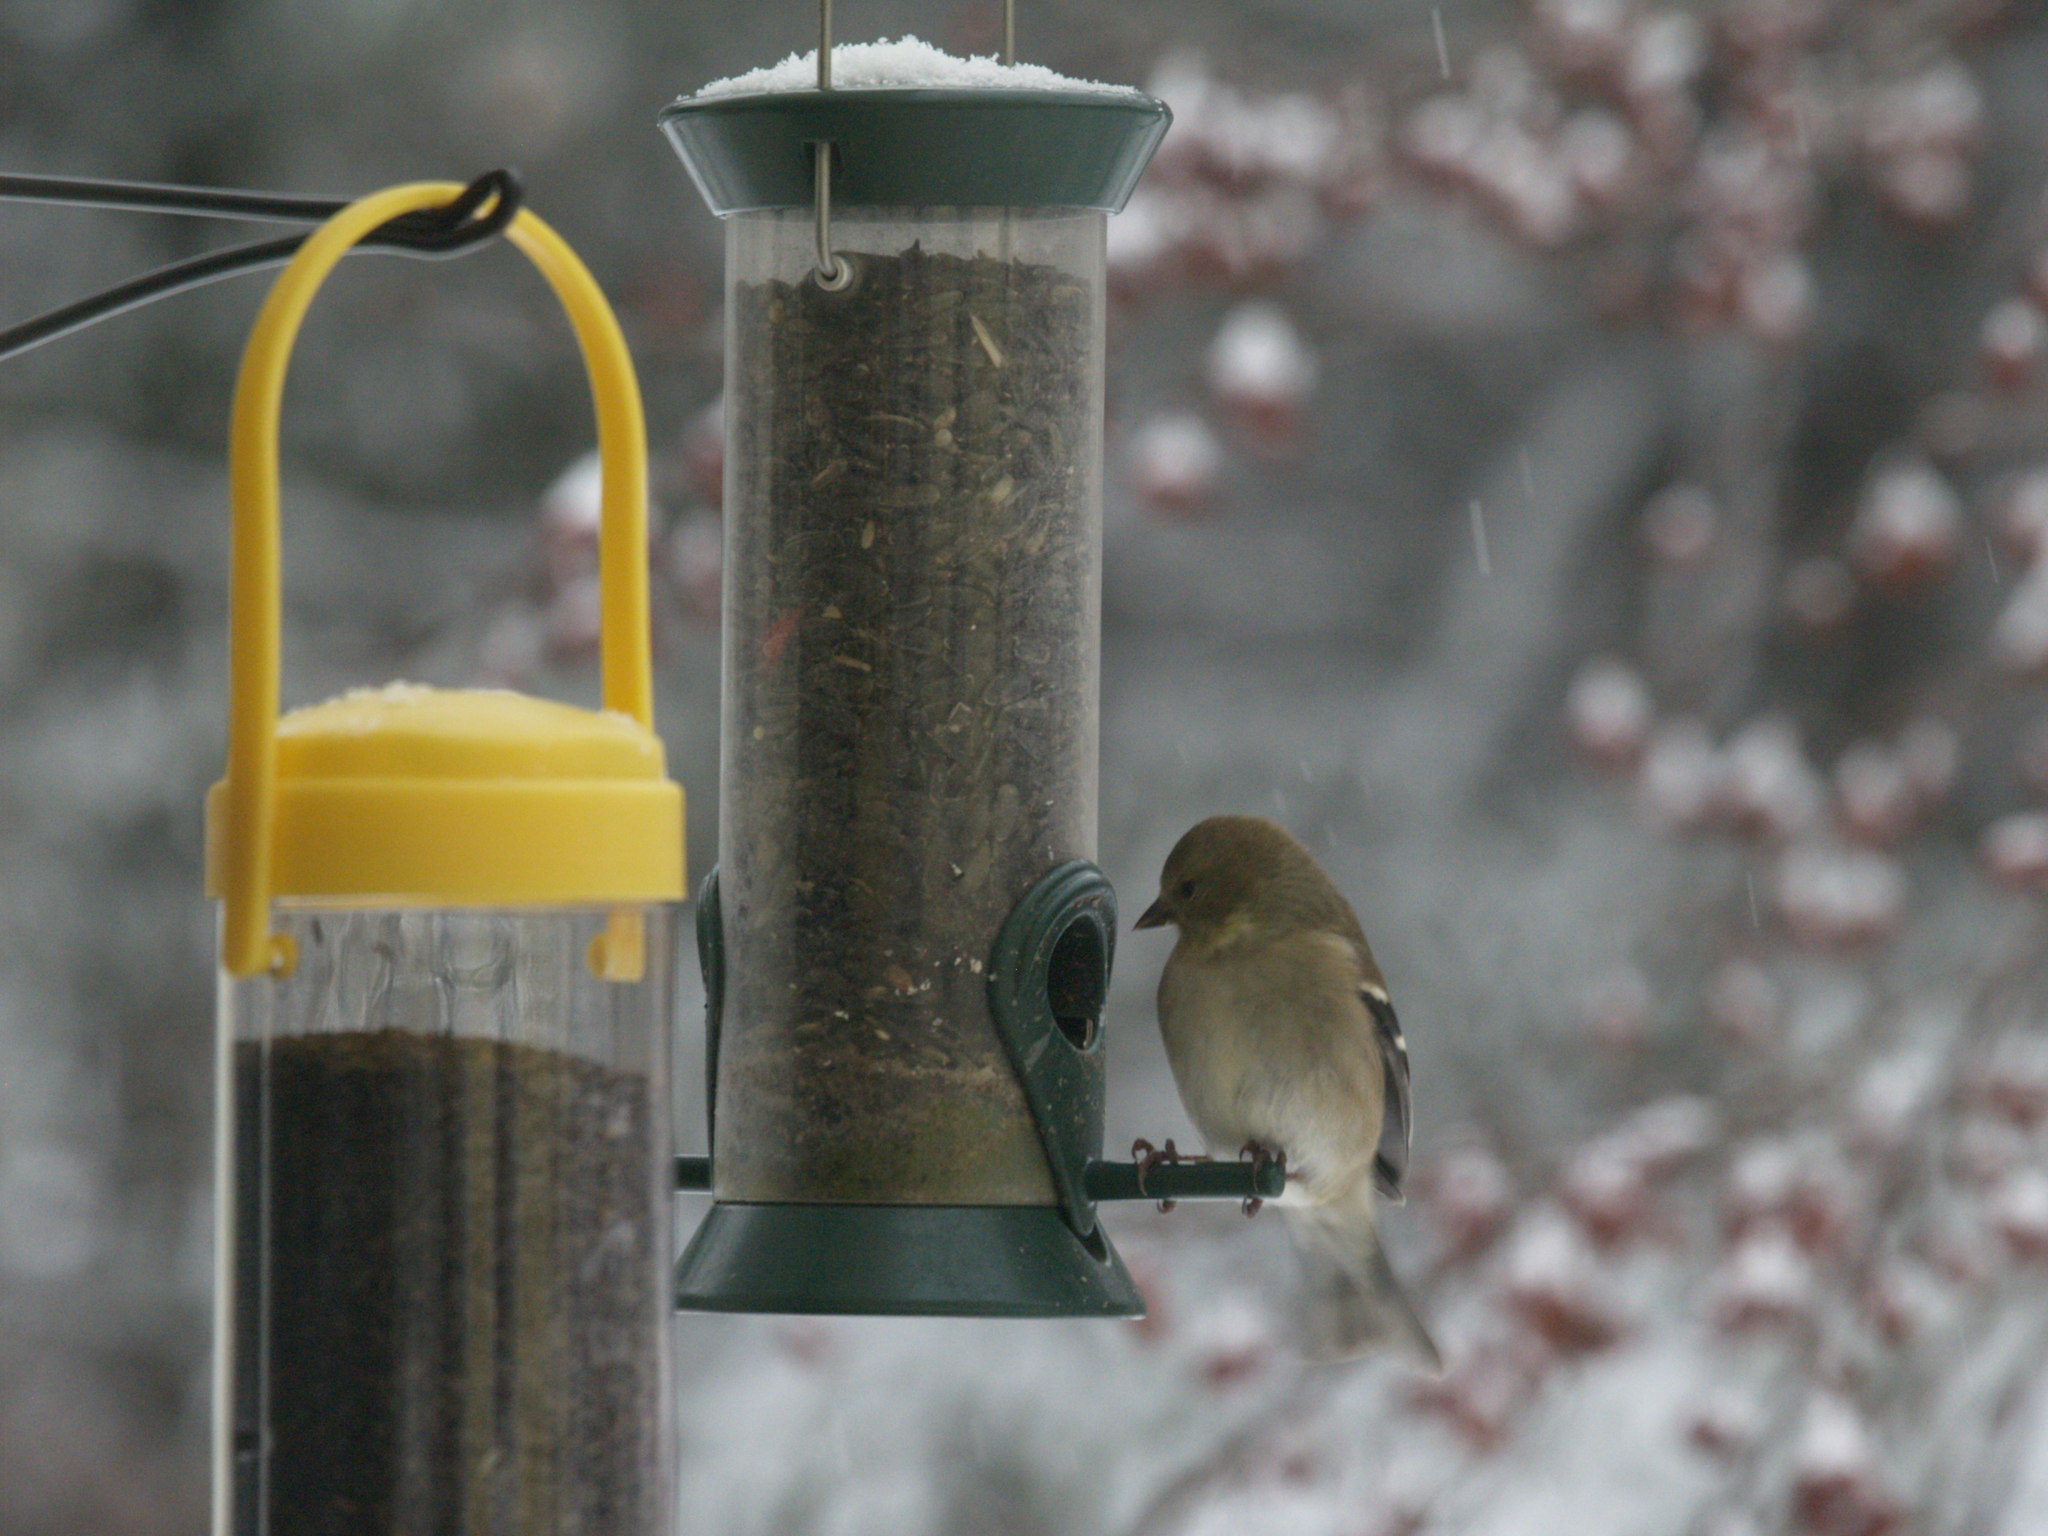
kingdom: Animalia
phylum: Chordata
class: Aves
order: Passeriformes
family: Fringillidae
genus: Spinus
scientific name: Spinus tristis
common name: American goldfinch
